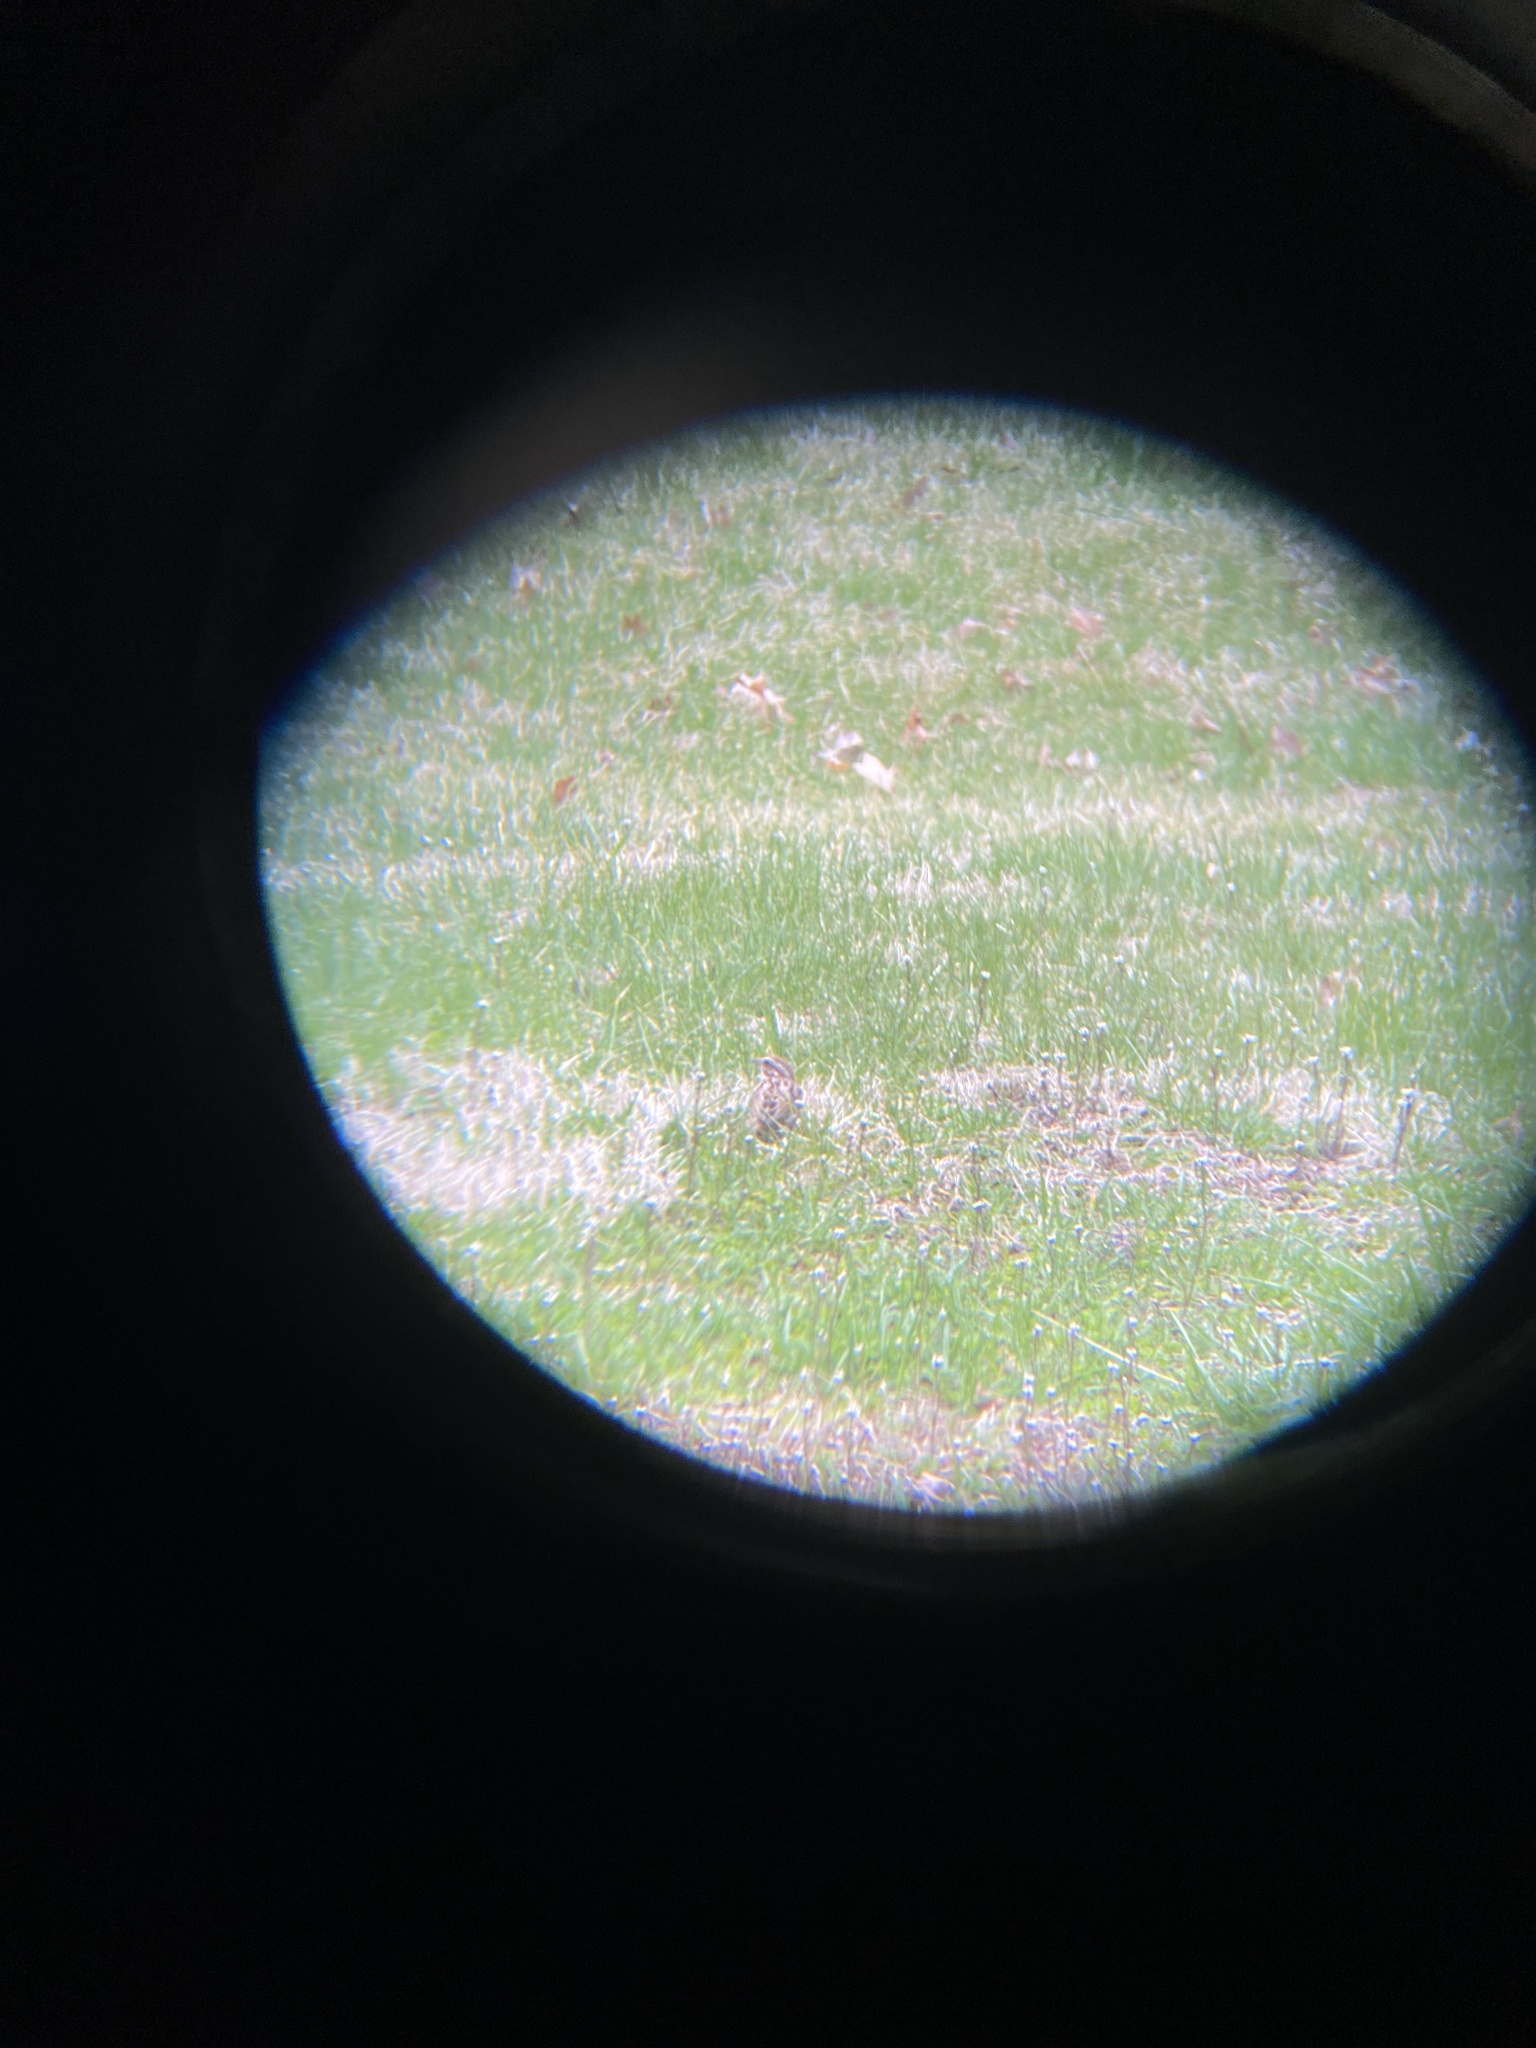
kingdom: Animalia
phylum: Chordata
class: Aves
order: Passeriformes
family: Passerellidae
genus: Melospiza
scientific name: Melospiza melodia
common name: Song sparrow
